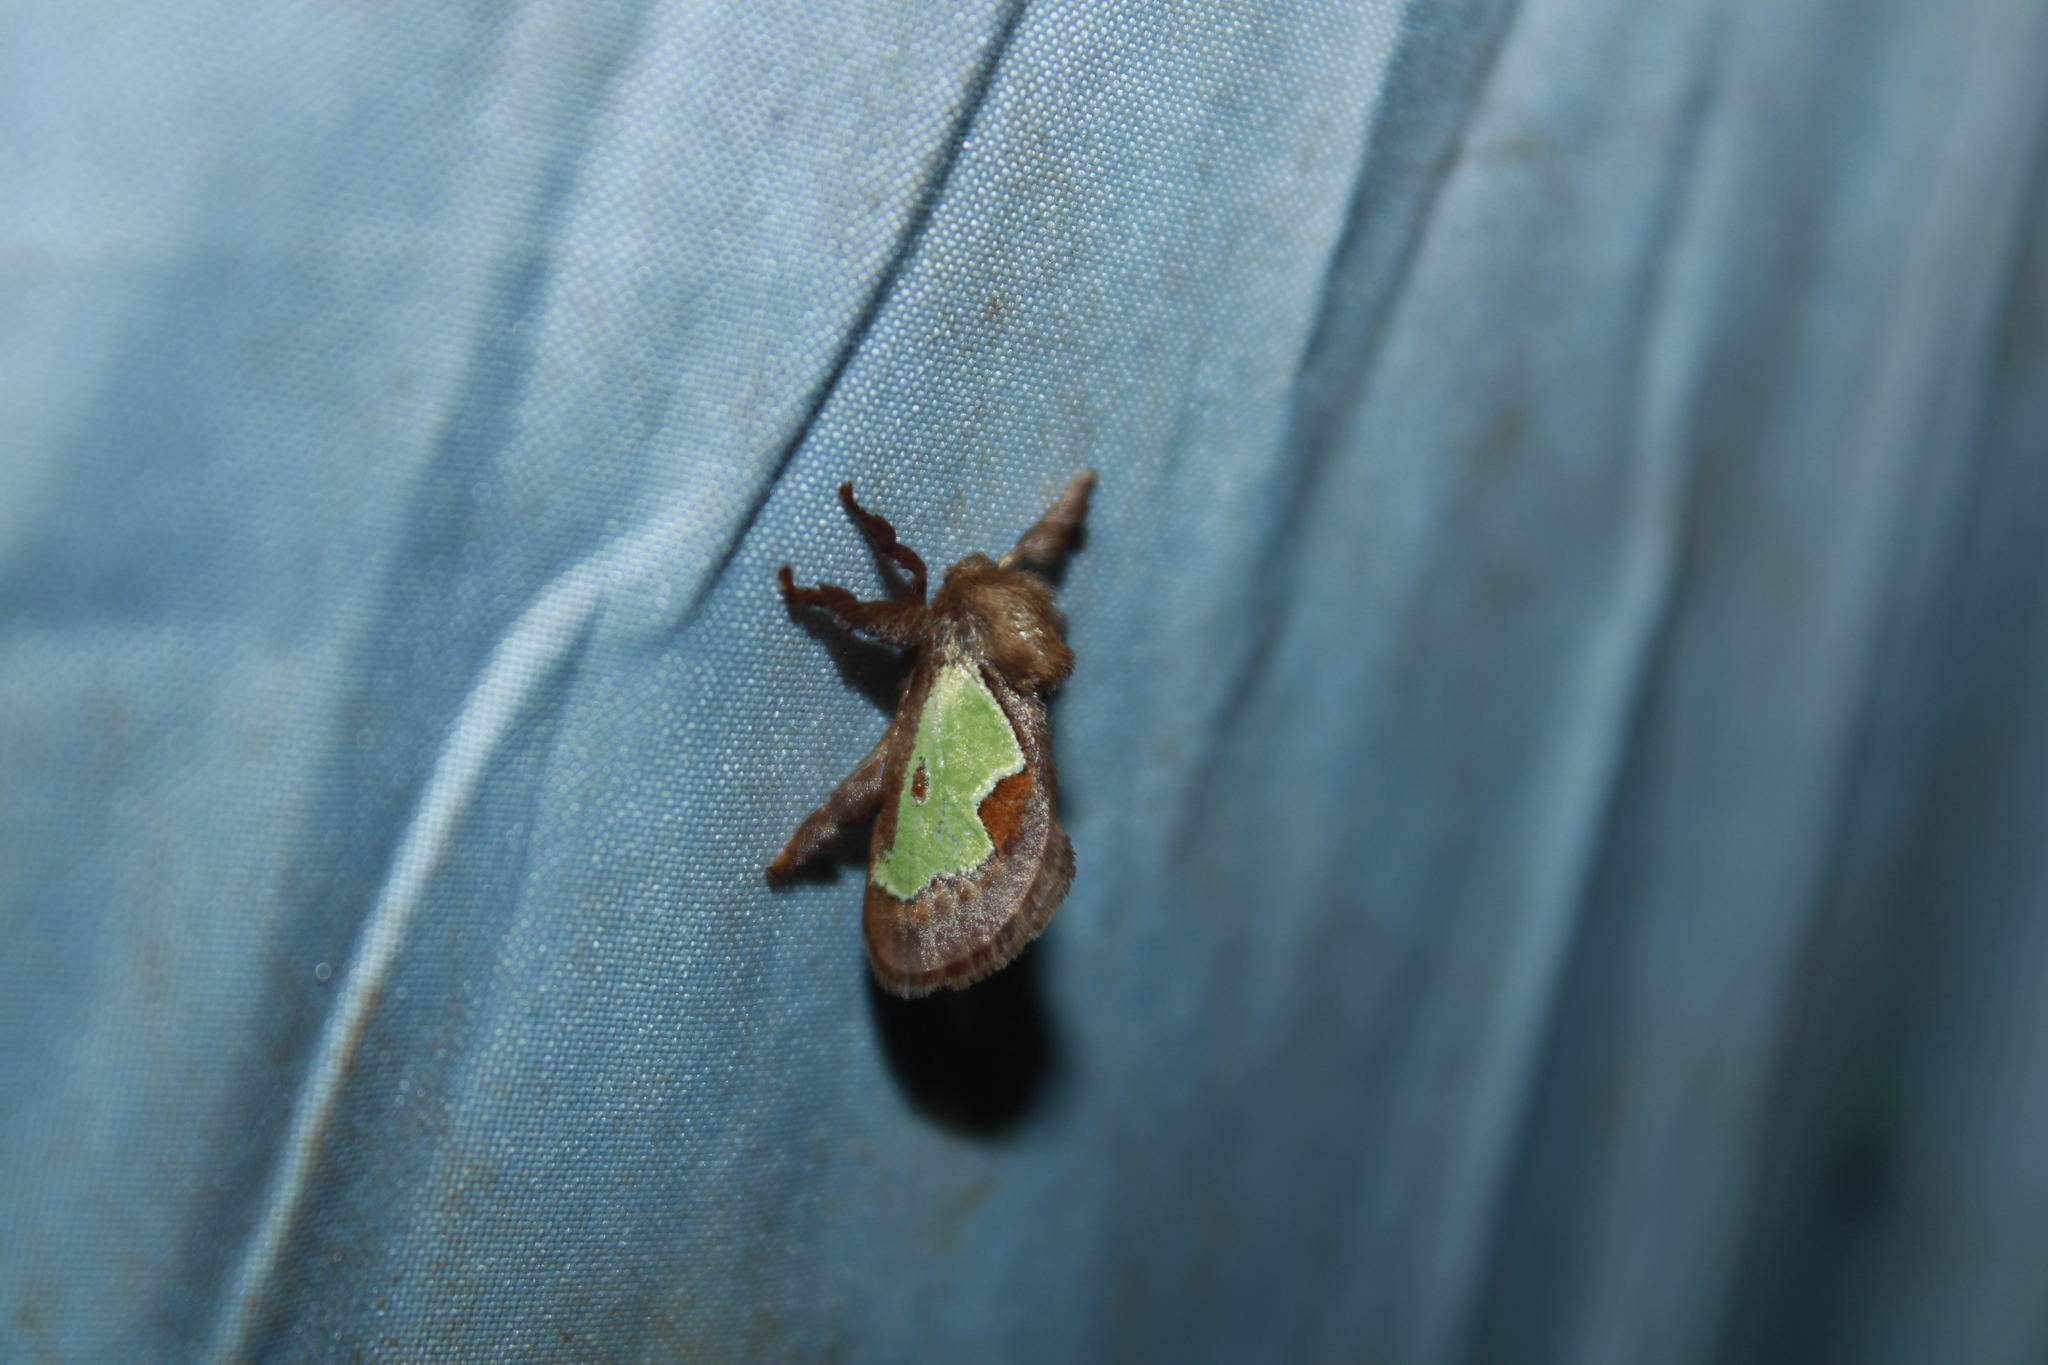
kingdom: Animalia
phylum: Arthropoda
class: Insecta
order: Lepidoptera
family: Limacodidae
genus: Euclea
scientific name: Euclea delphinii
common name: Spiny oak-slug moth
